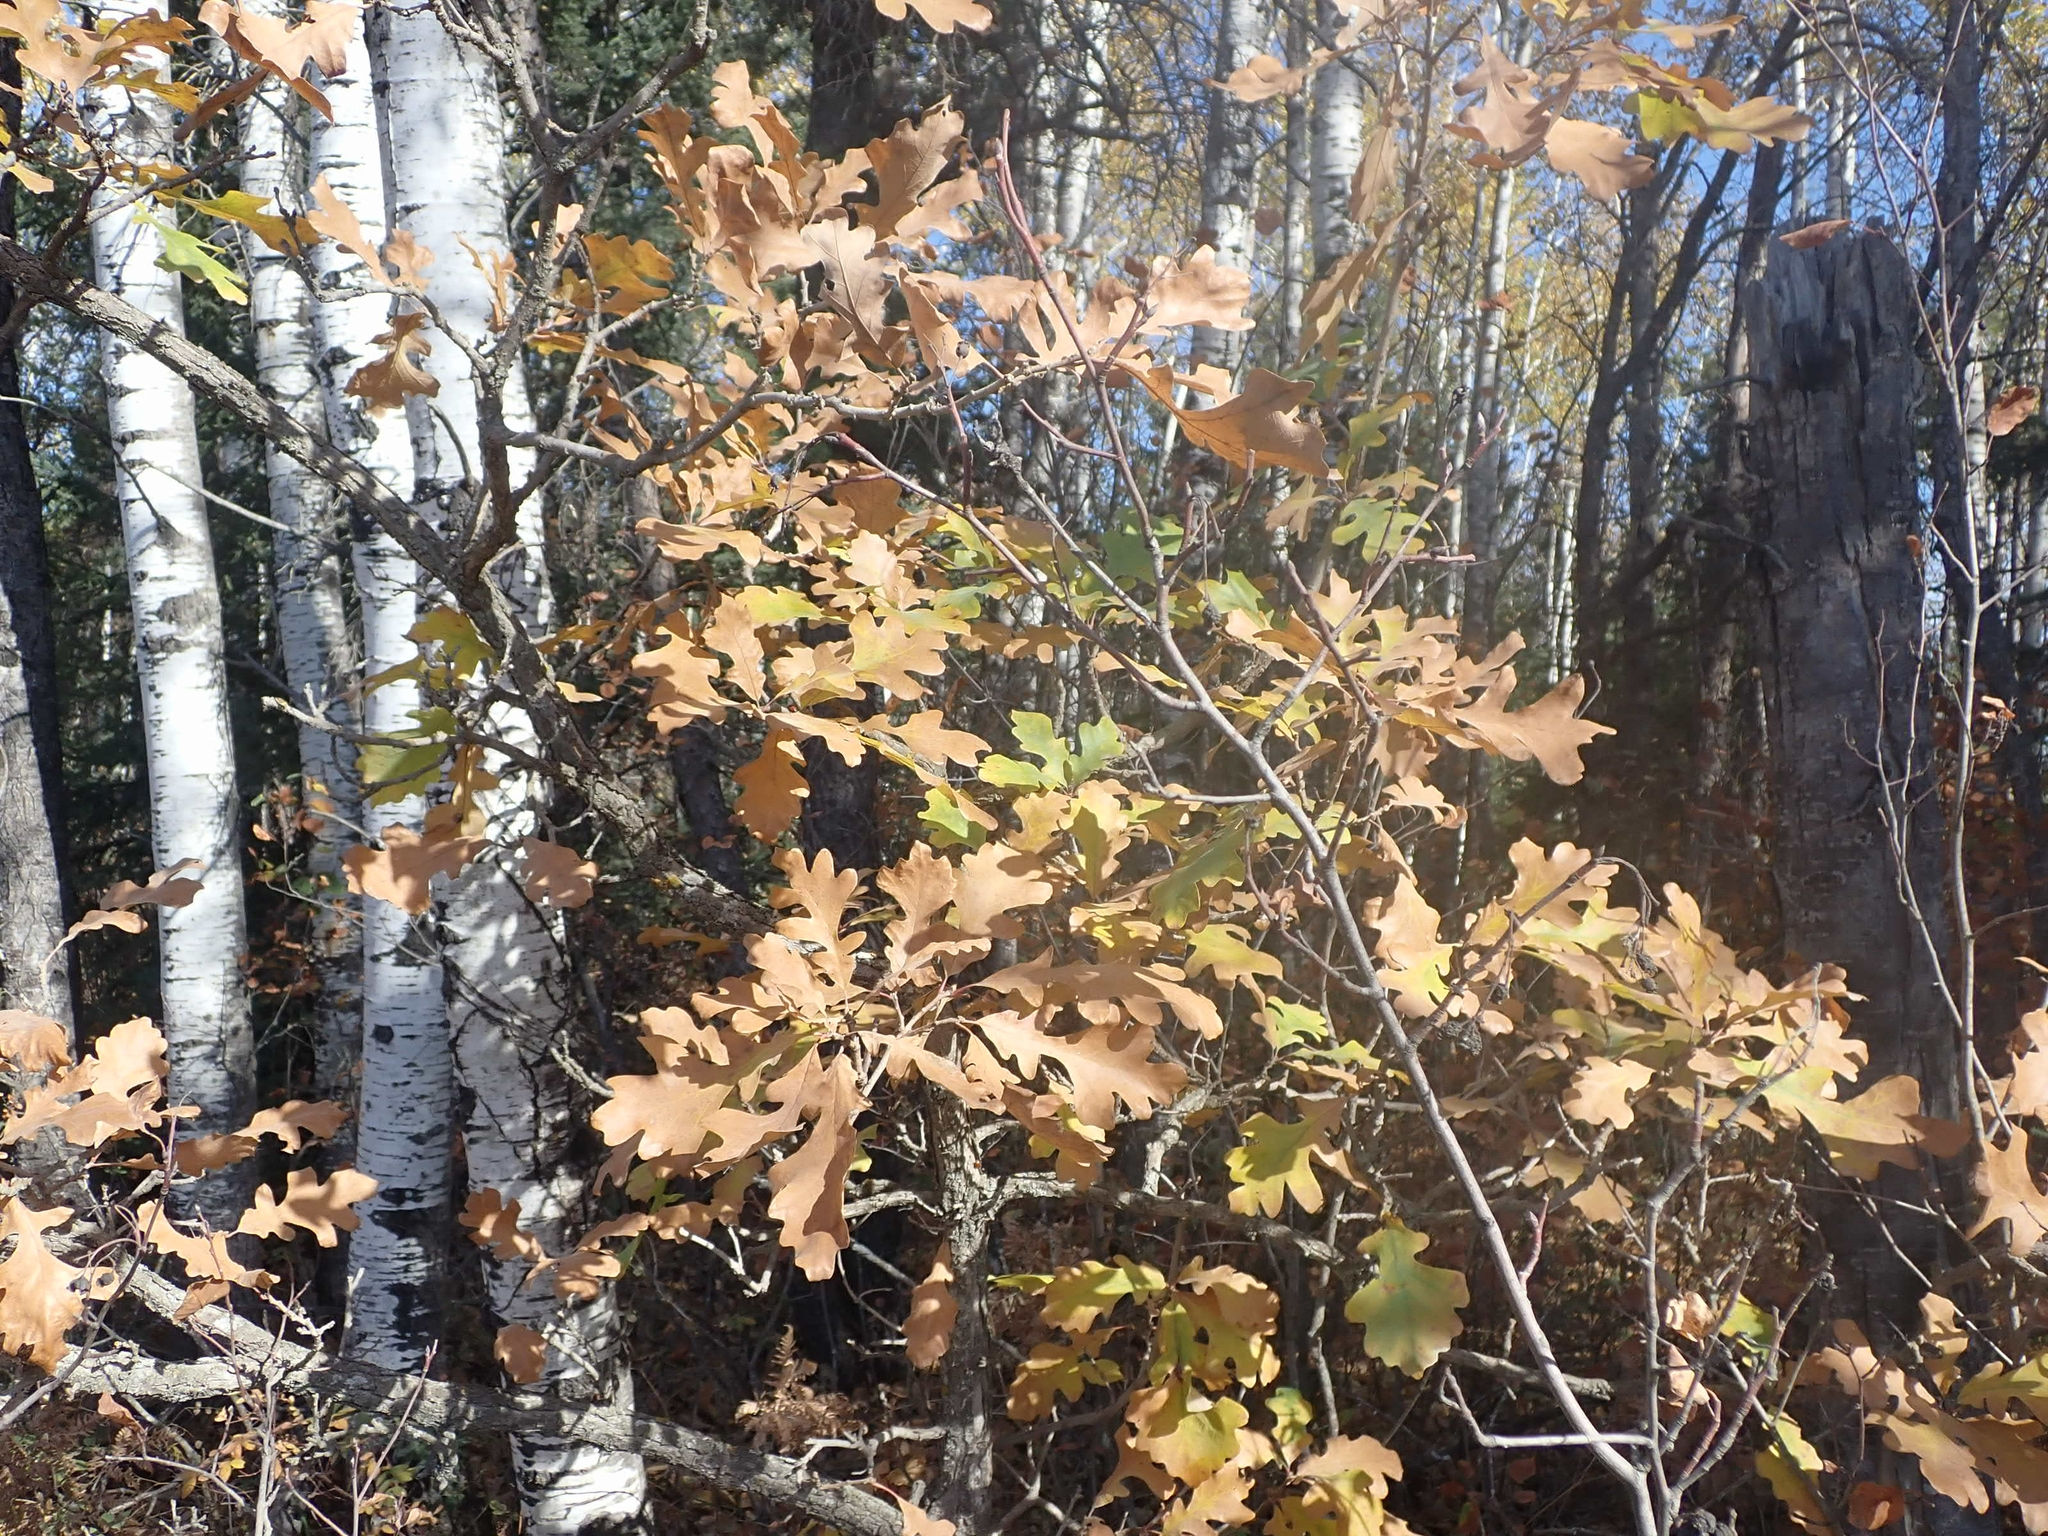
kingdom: Plantae
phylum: Tracheophyta
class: Magnoliopsida
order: Fagales
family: Fagaceae
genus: Quercus
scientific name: Quercus macrocarpa
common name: Bur oak
